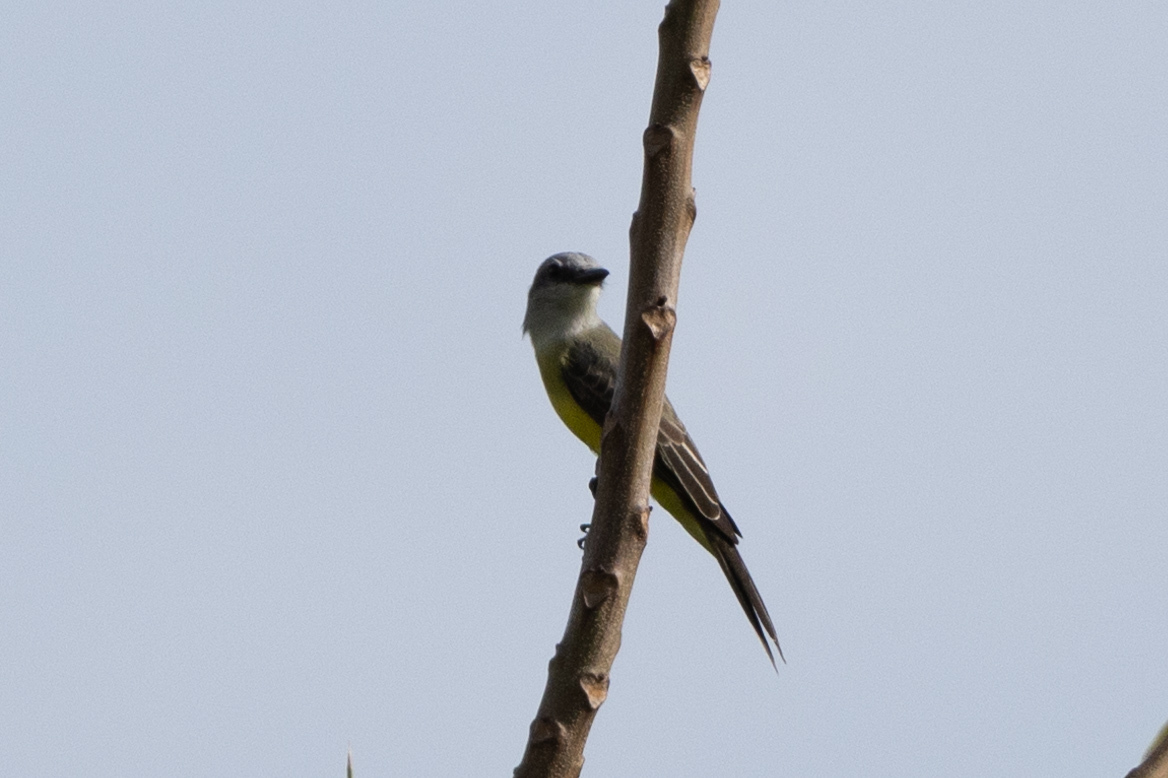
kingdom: Animalia
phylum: Chordata
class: Aves
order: Passeriformes
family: Tyrannidae
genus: Tyrannus
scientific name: Tyrannus melancholicus
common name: Tropical kingbird
